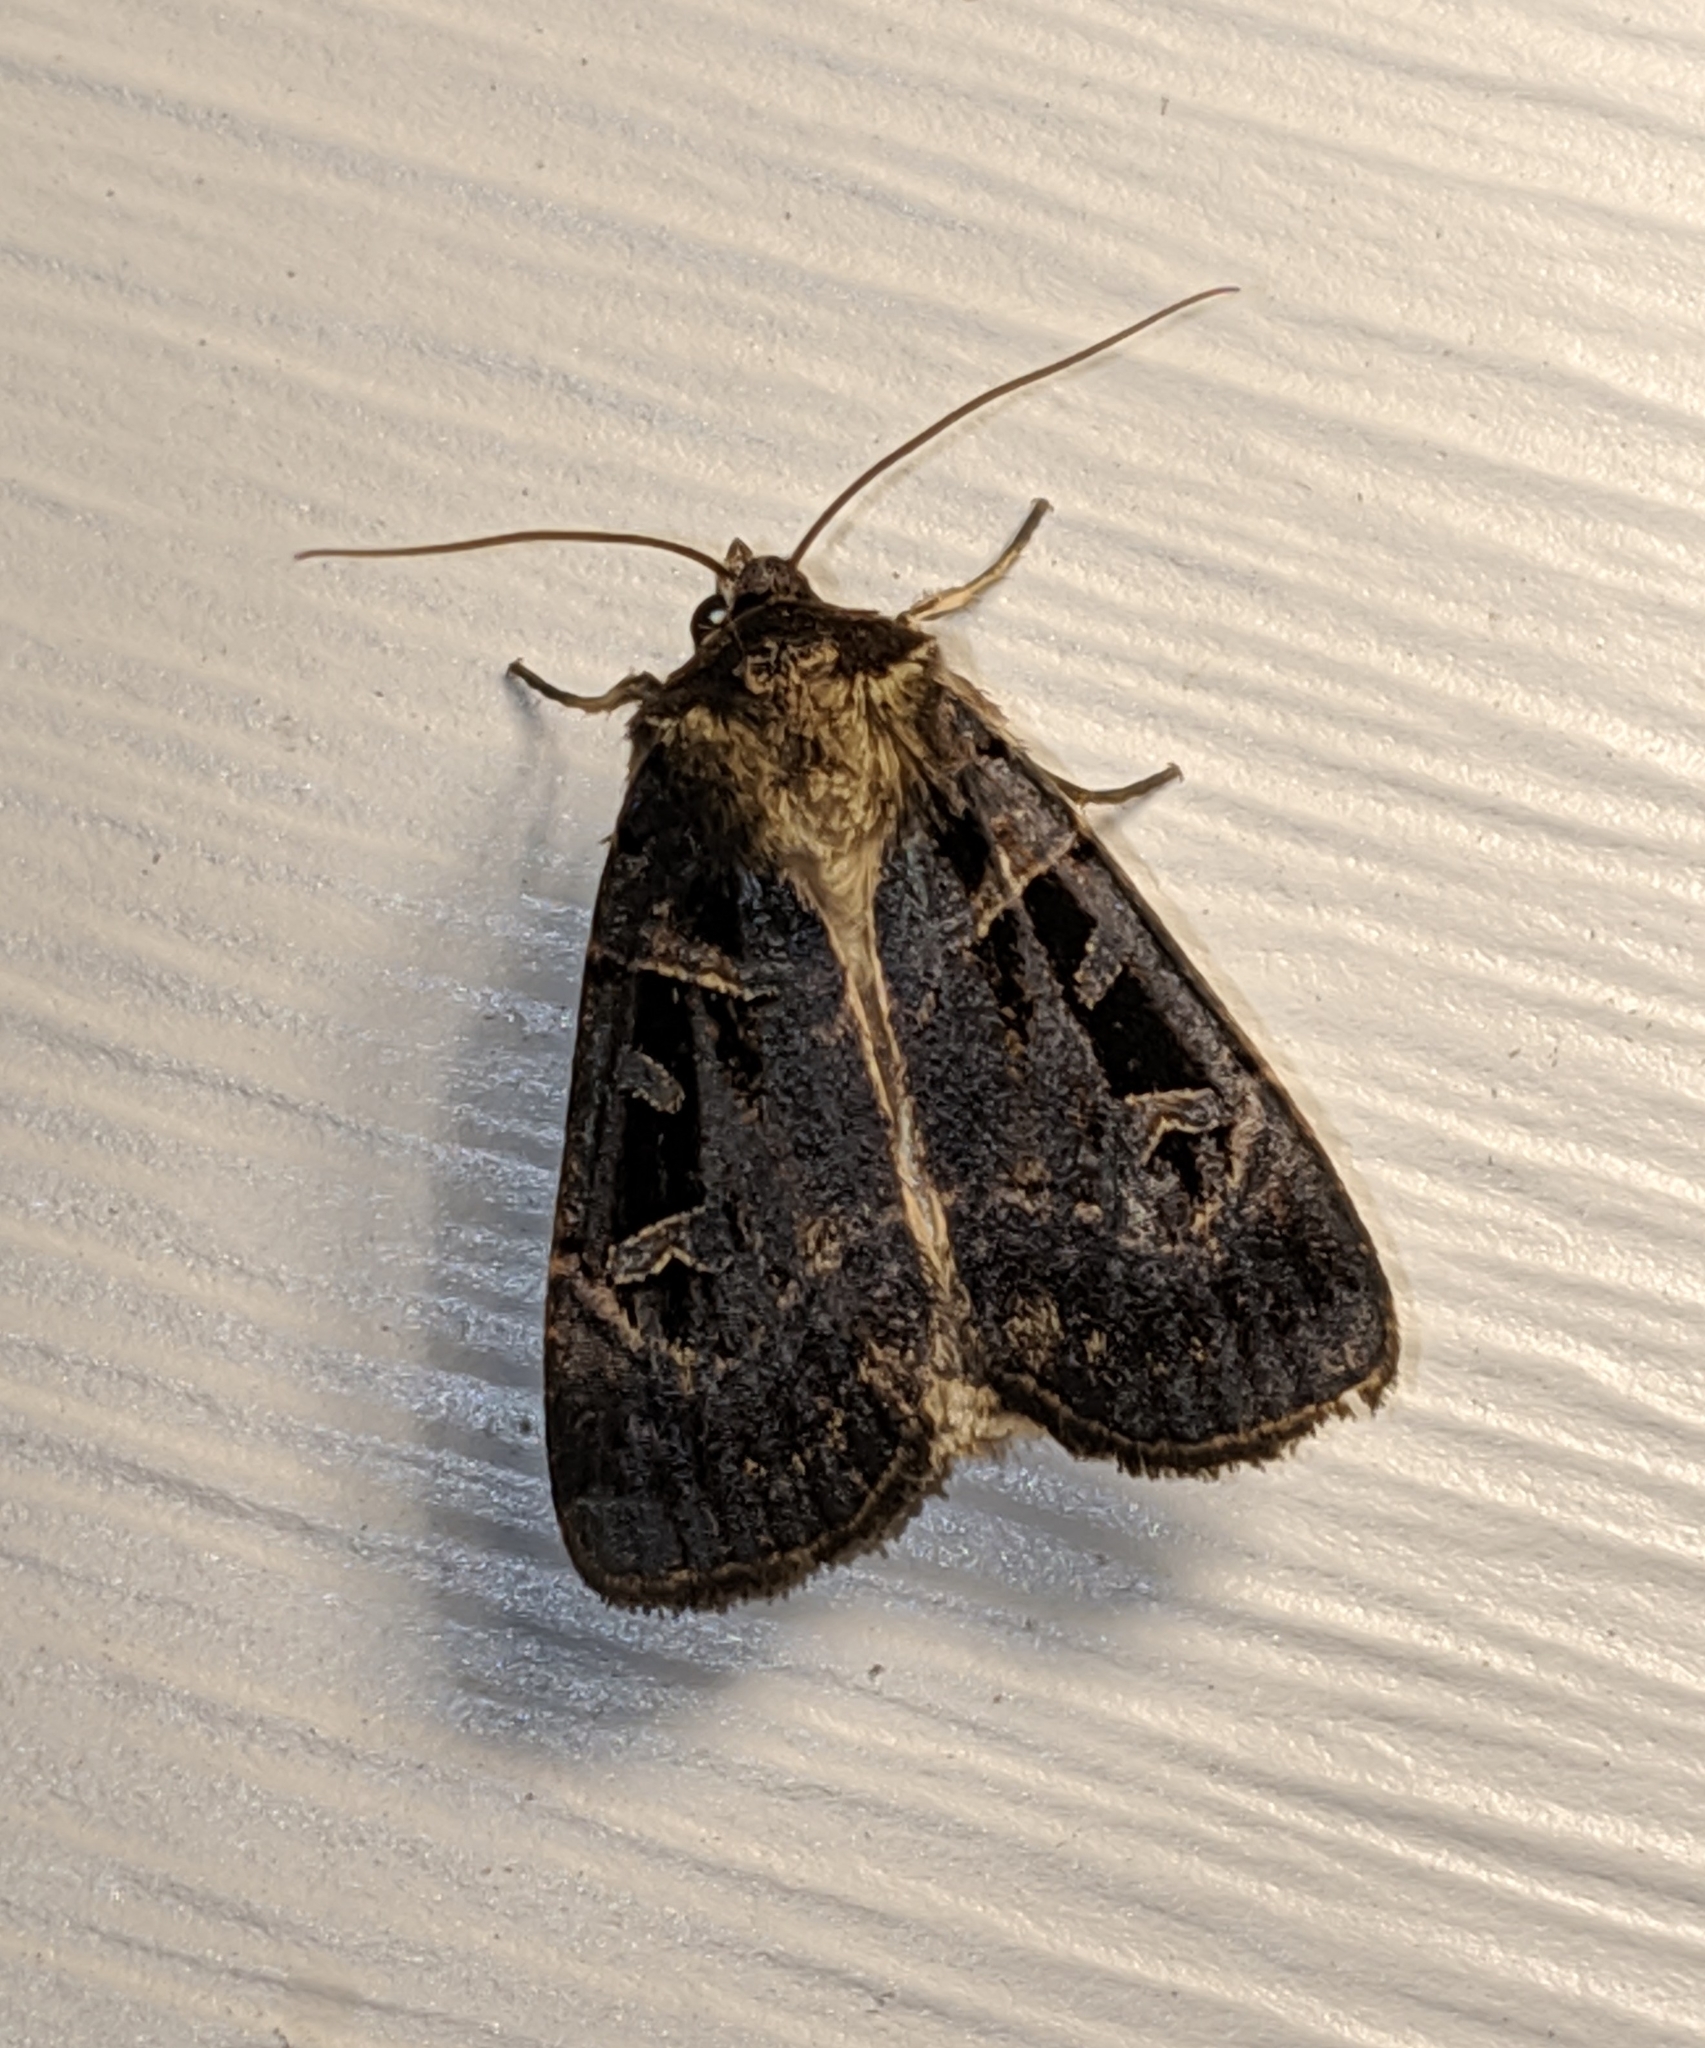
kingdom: Animalia
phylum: Arthropoda
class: Insecta
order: Lepidoptera
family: Noctuidae
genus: Pseudohermonassa
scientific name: Pseudohermonassa tenuicula
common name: Morrison's sooty dart
